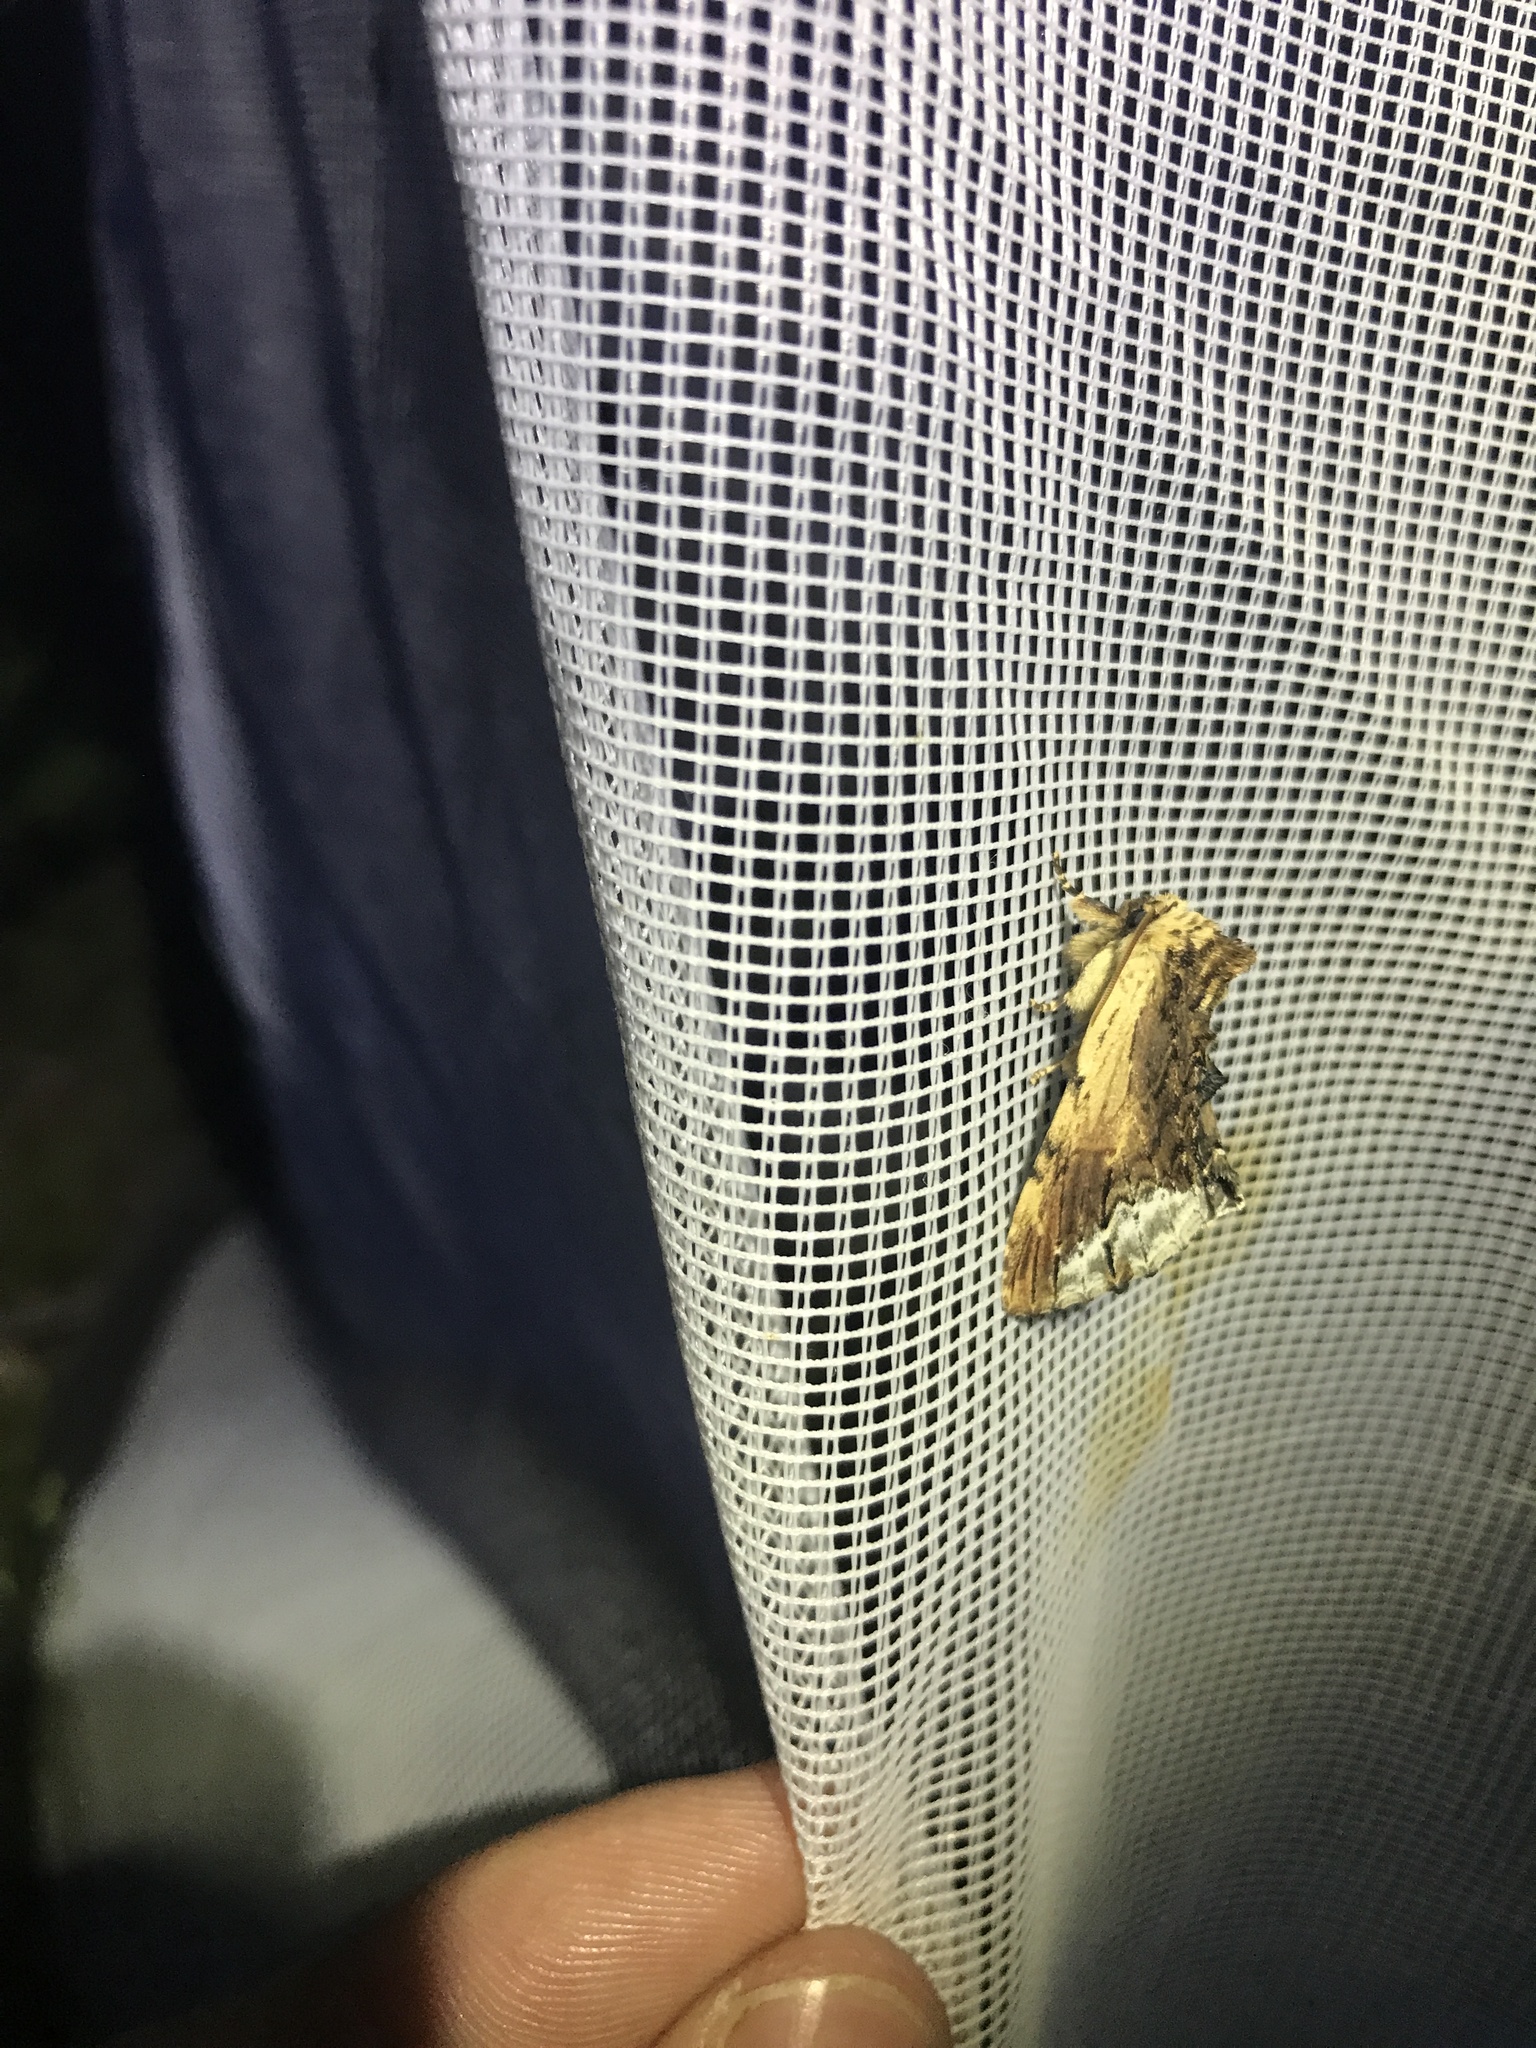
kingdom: Animalia
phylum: Arthropoda
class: Insecta
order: Lepidoptera
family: Notodontidae
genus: Ptilodon
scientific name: Ptilodon cucullina
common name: Maple prominent
